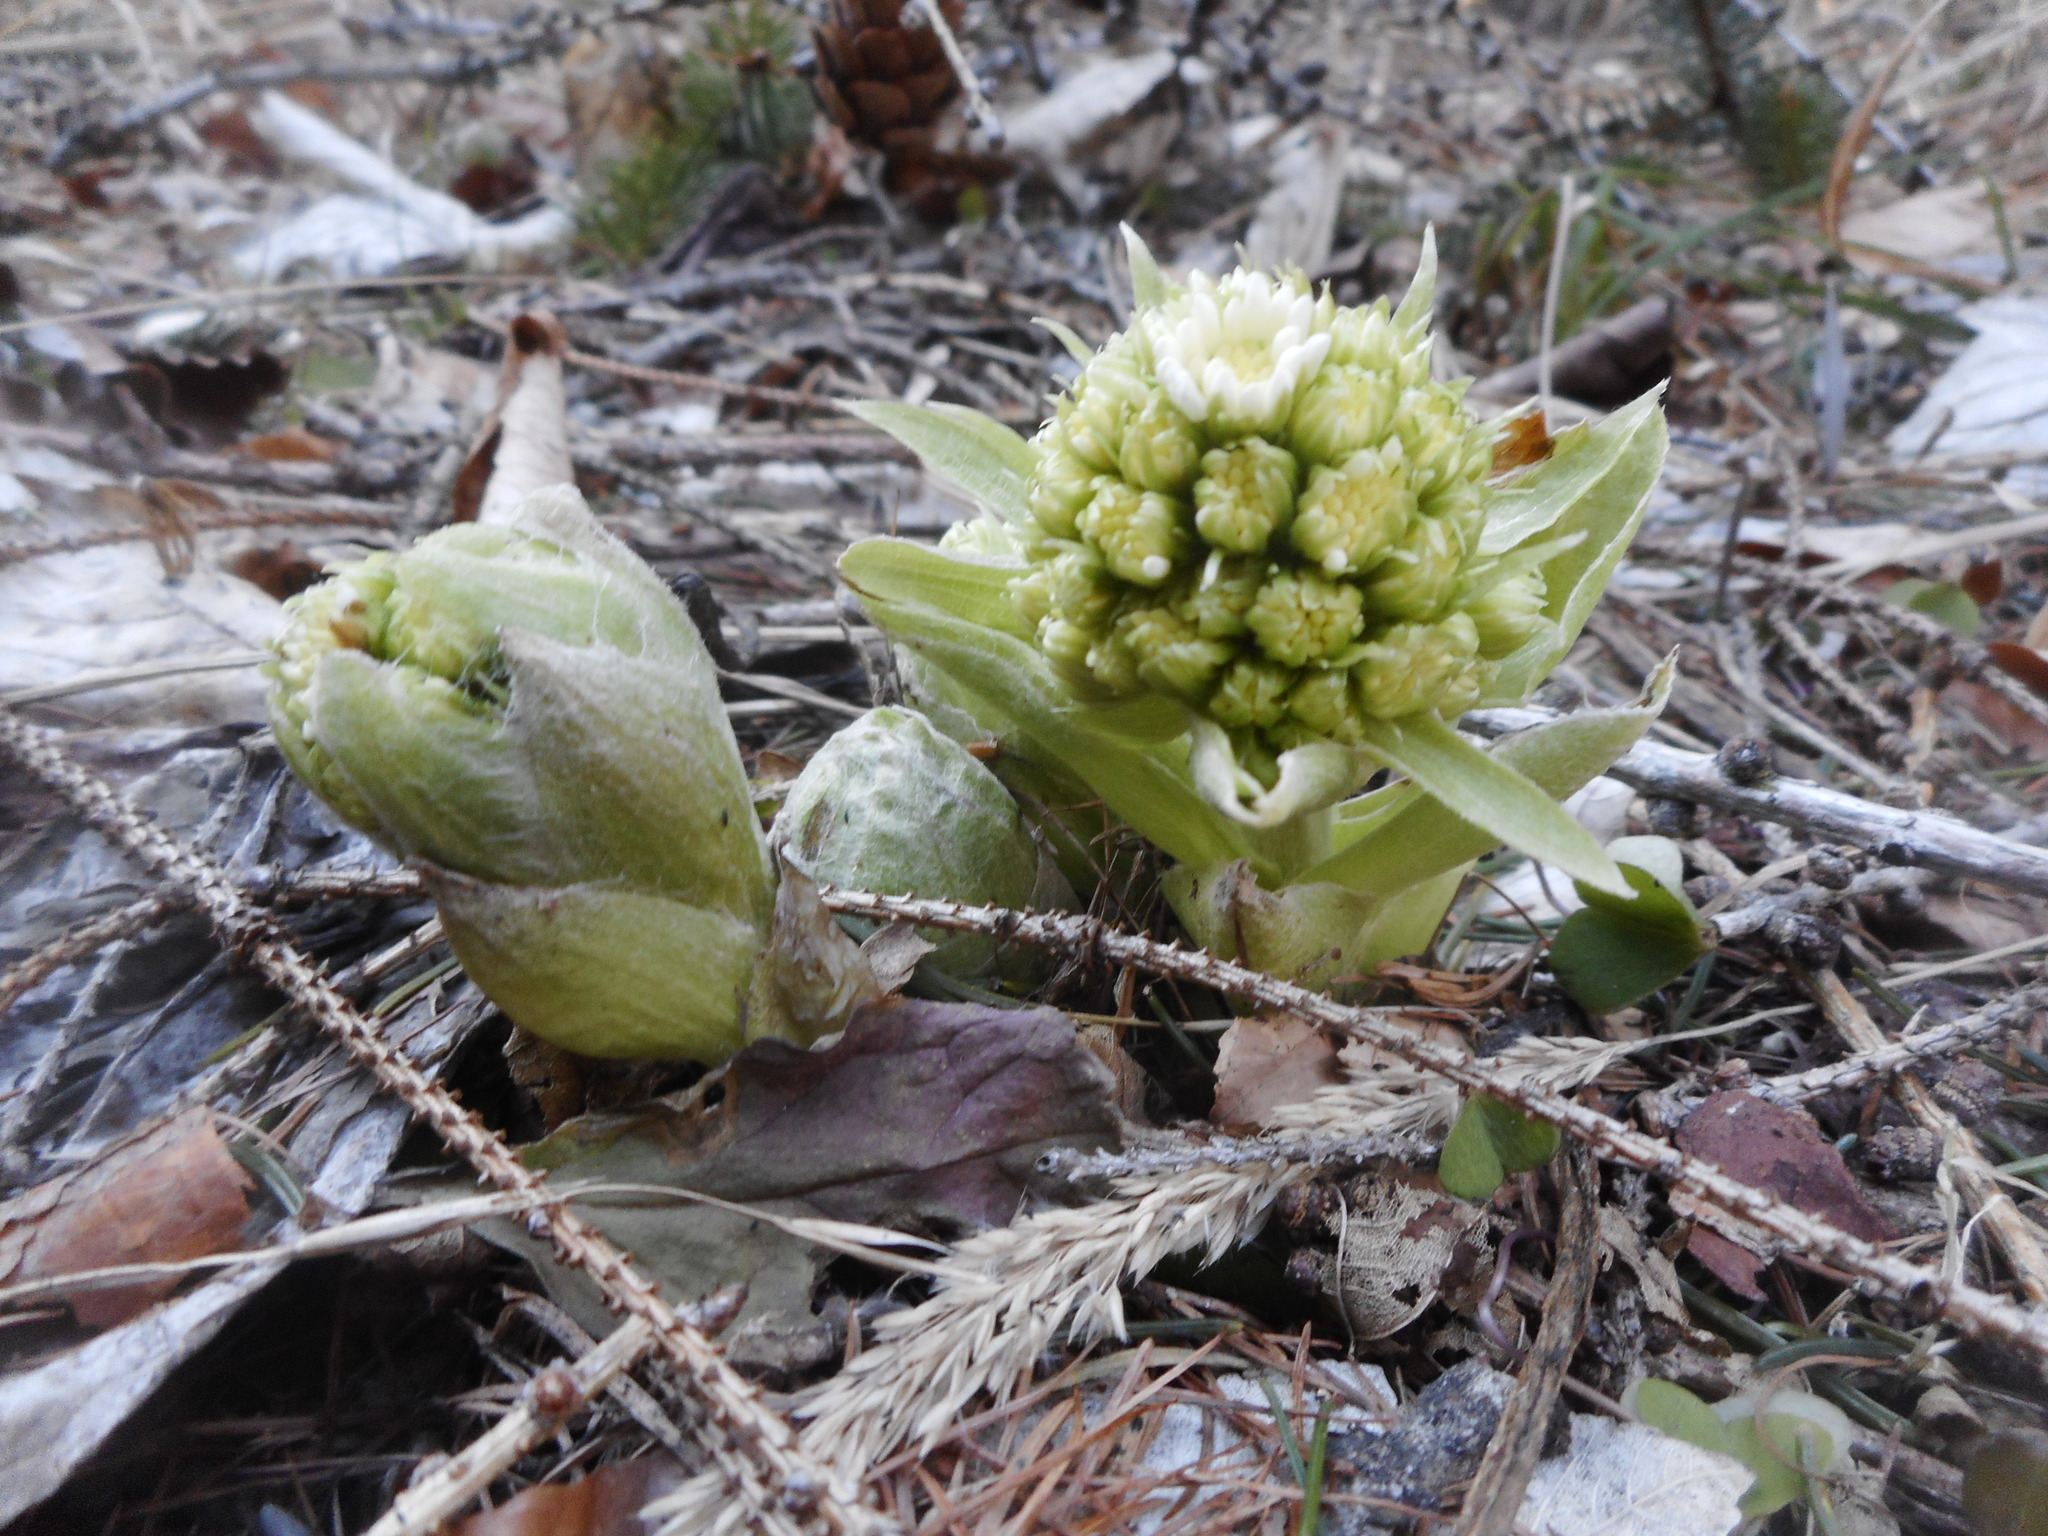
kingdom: Plantae
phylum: Tracheophyta
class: Magnoliopsida
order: Asterales
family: Asteraceae
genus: Petasites
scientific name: Petasites albus
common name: White butterbur
